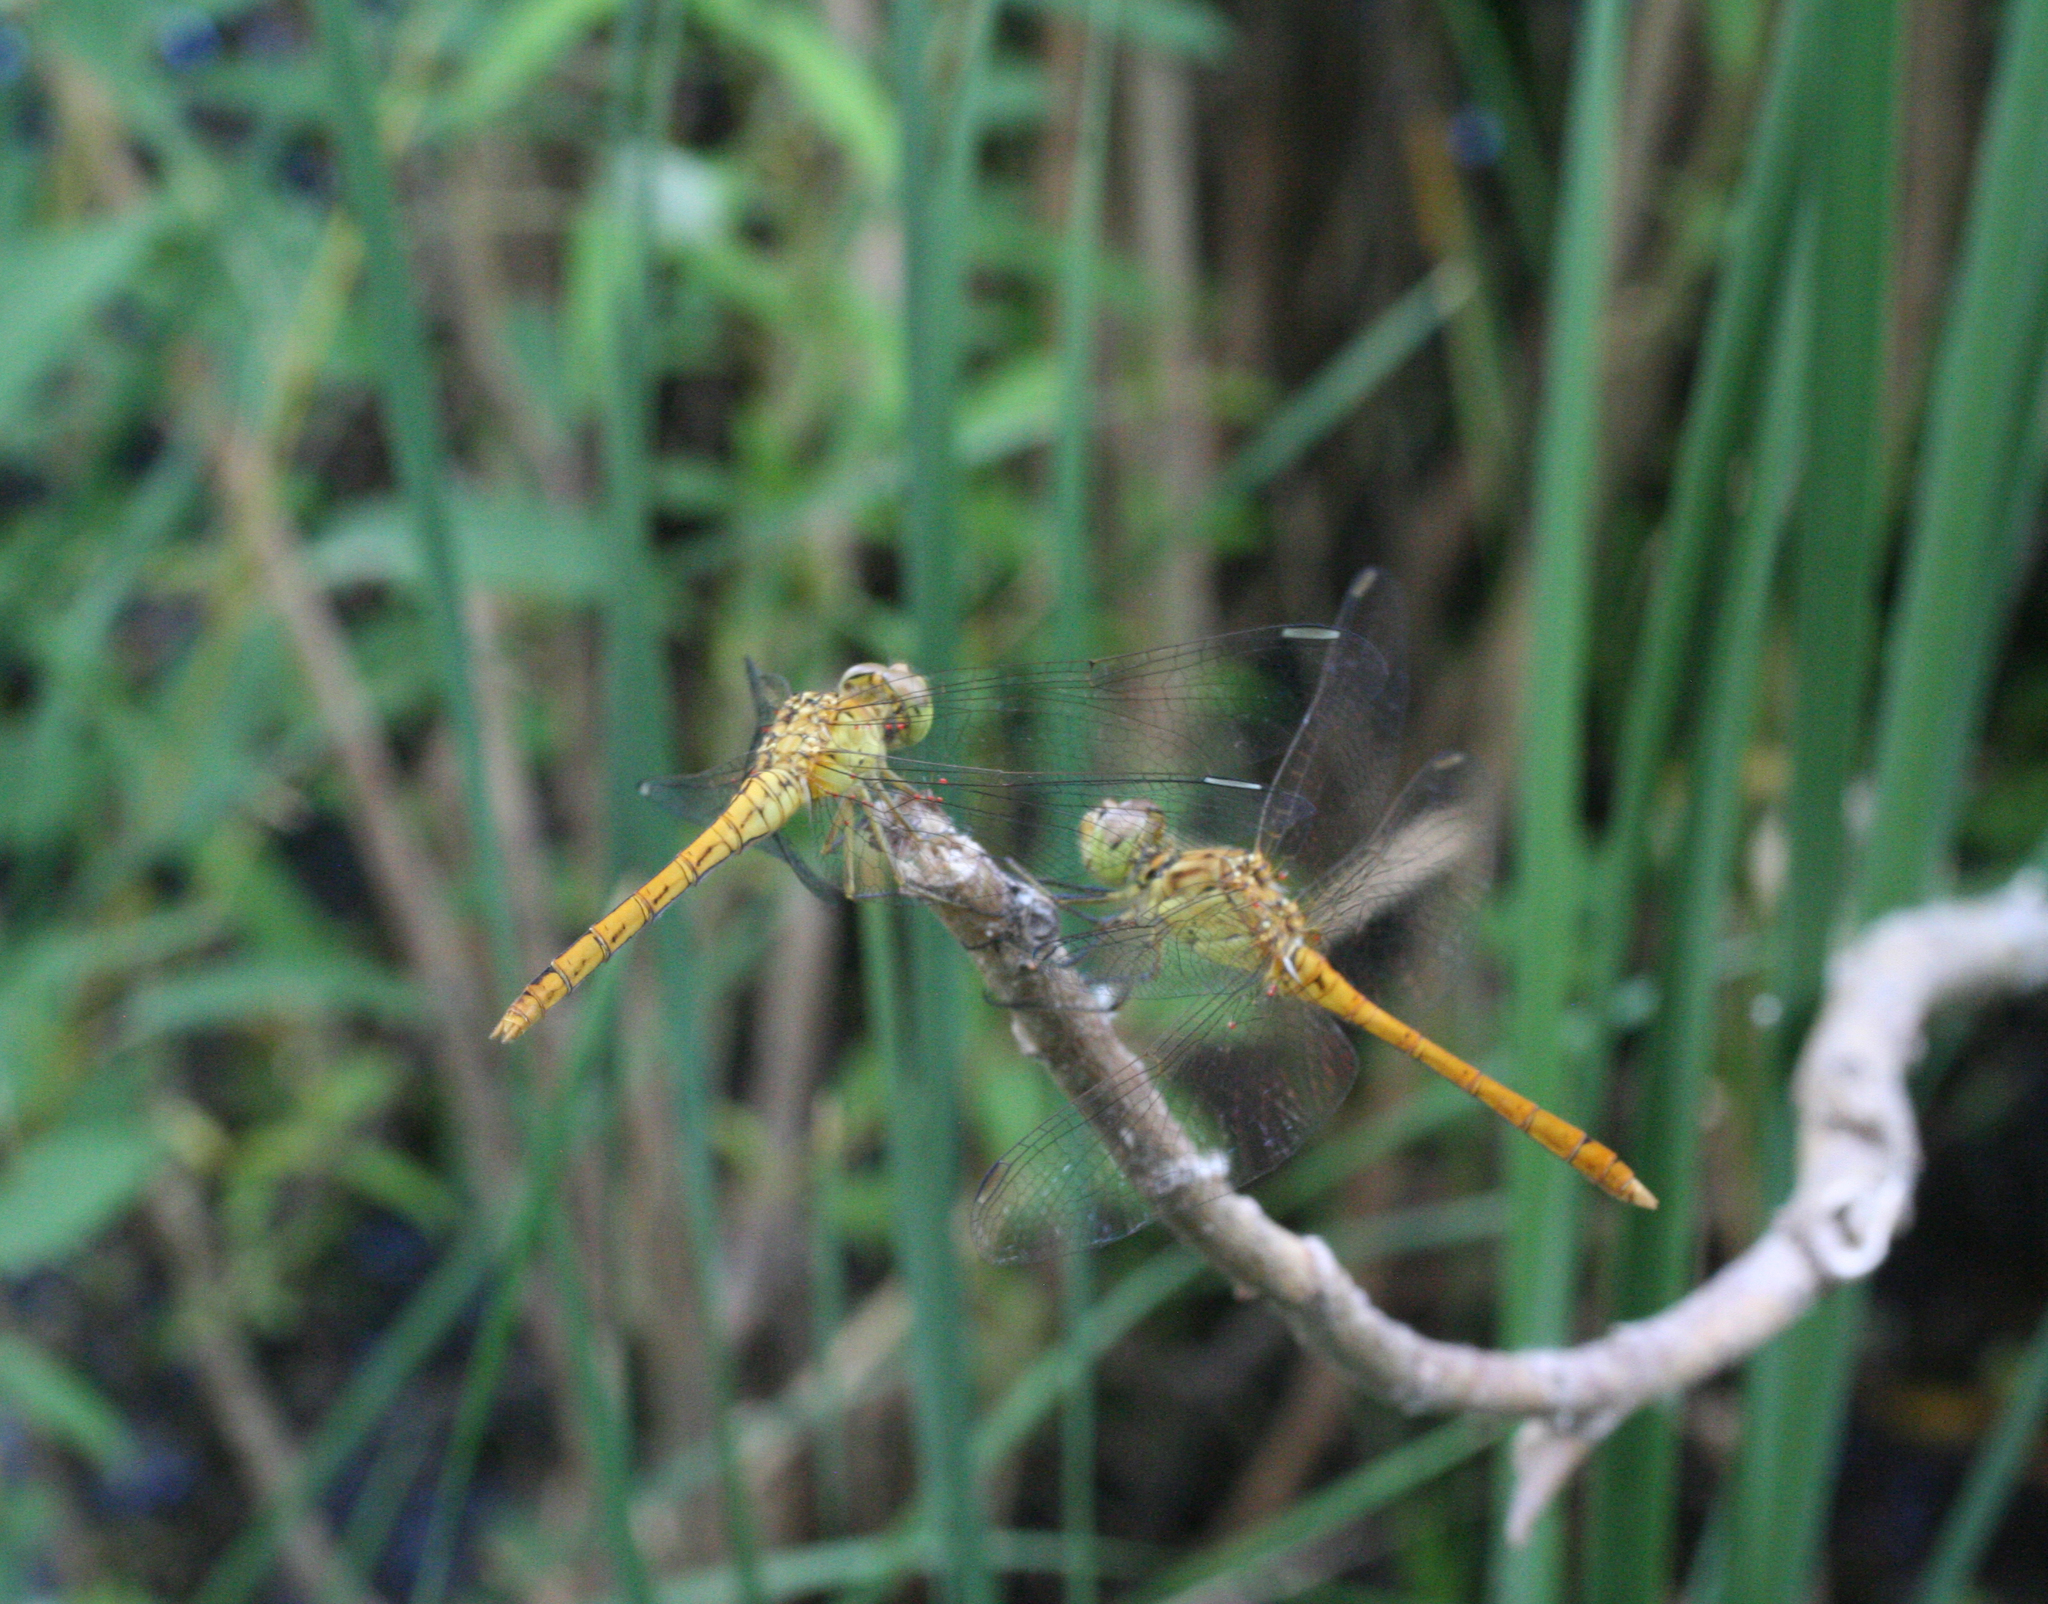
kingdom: Animalia
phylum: Arthropoda
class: Insecta
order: Odonata
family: Libellulidae
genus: Sympetrum
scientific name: Sympetrum meridionale
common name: Southern darter
